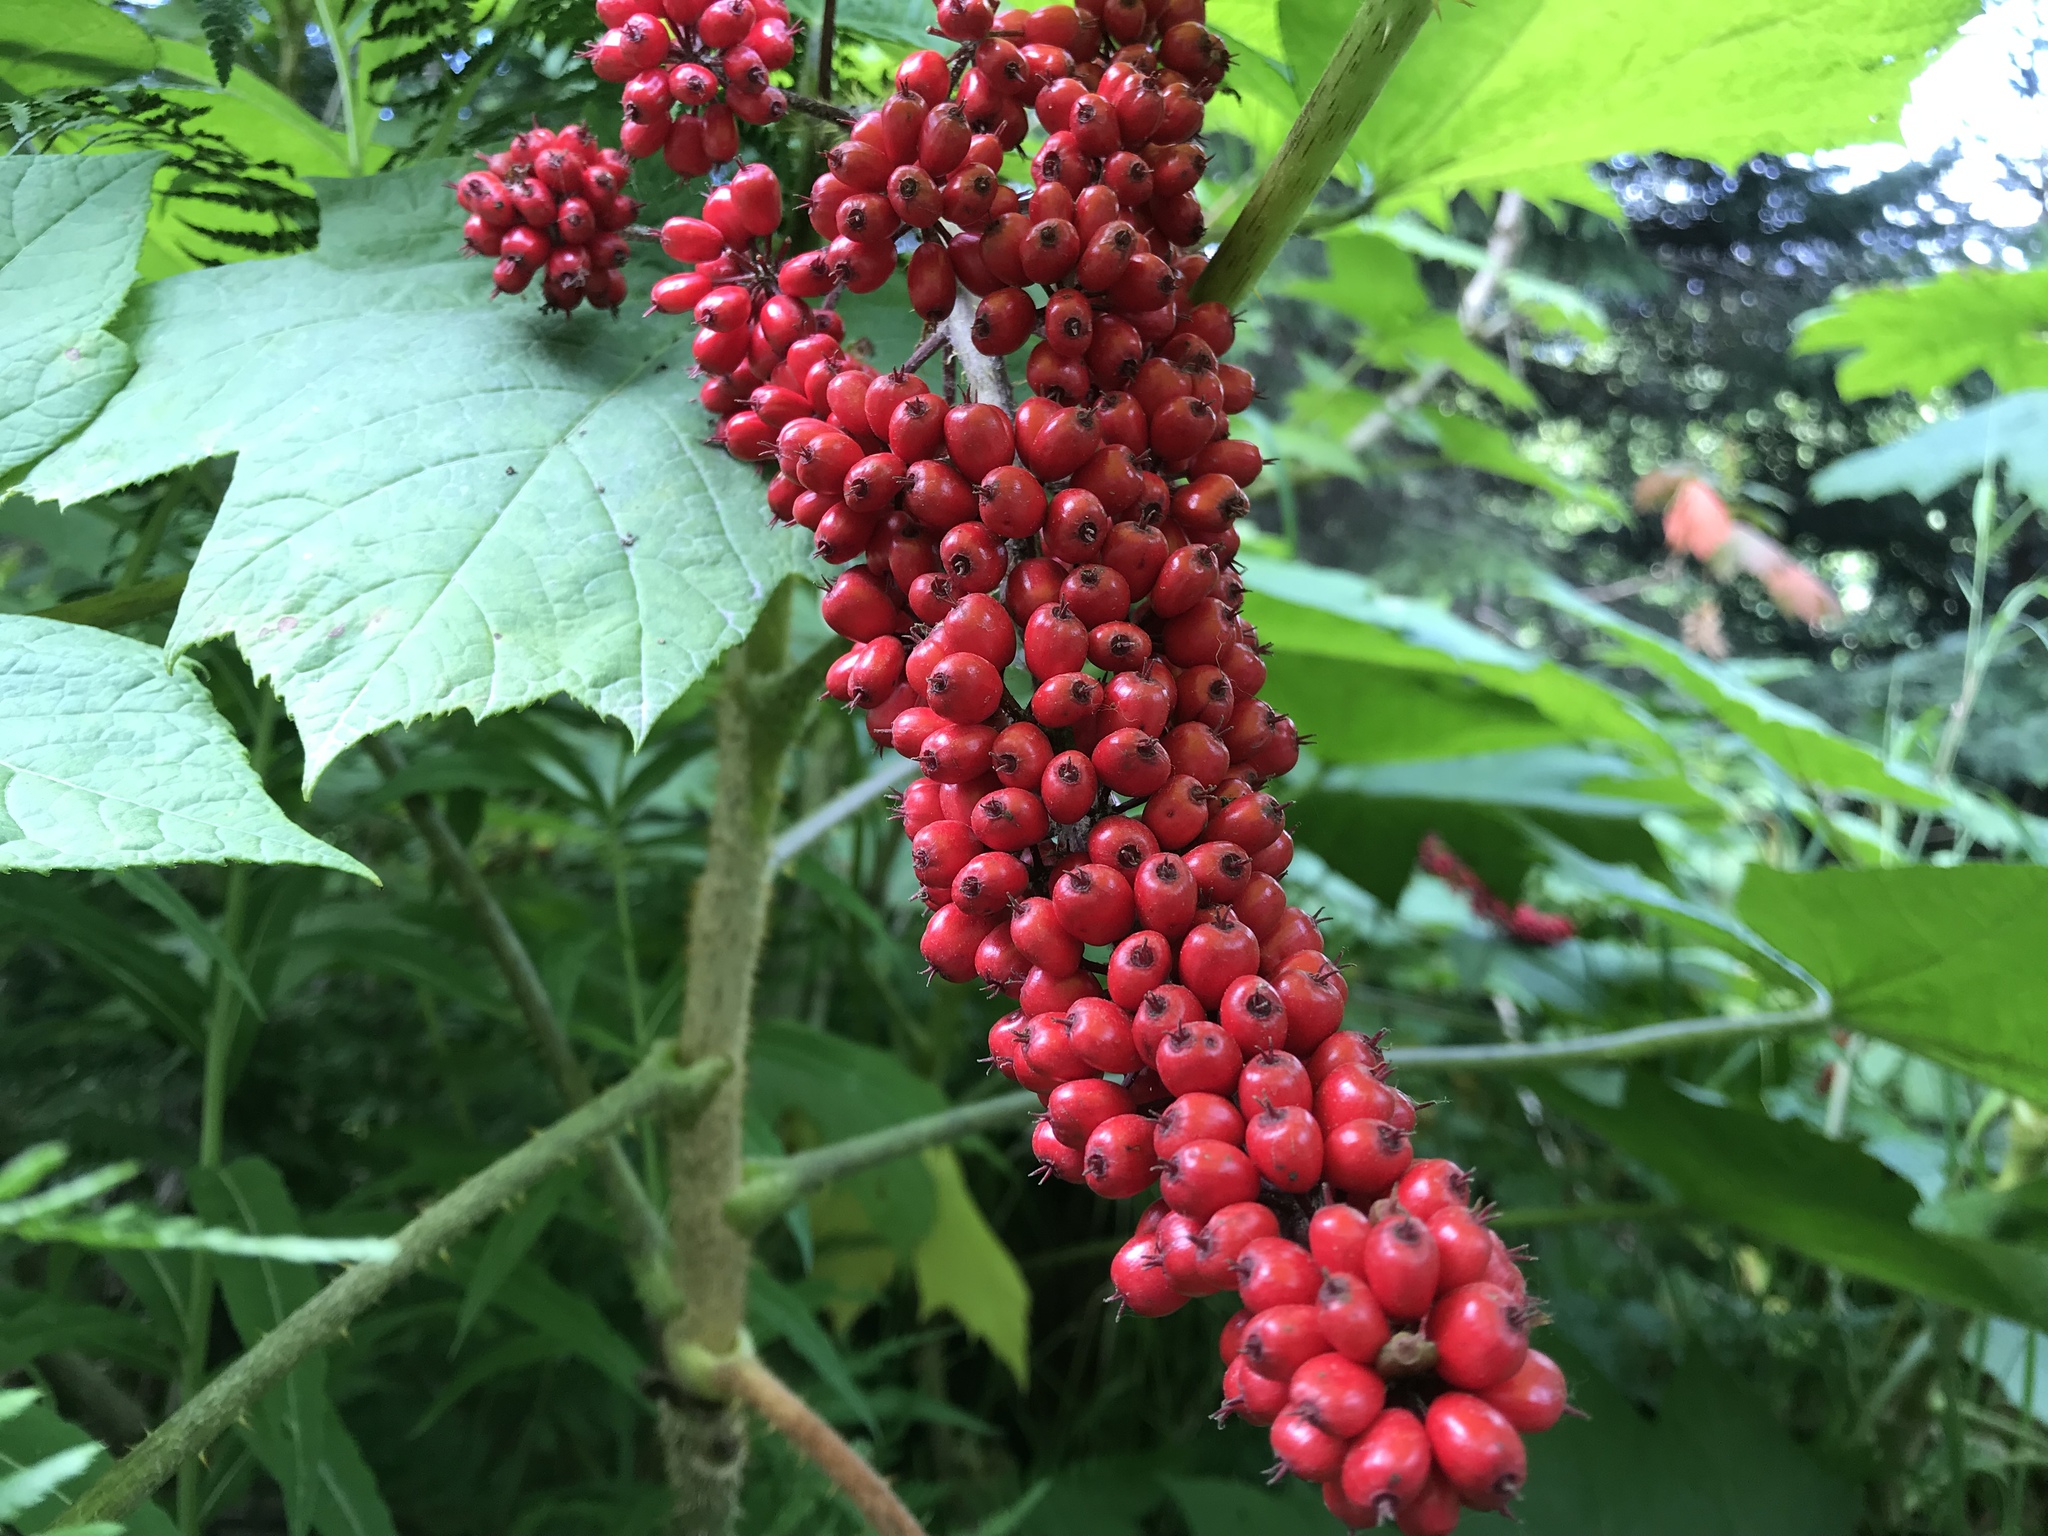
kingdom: Plantae
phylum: Tracheophyta
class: Magnoliopsida
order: Apiales
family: Araliaceae
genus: Oplopanax
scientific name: Oplopanax horridus
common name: Devil's walking-stick
